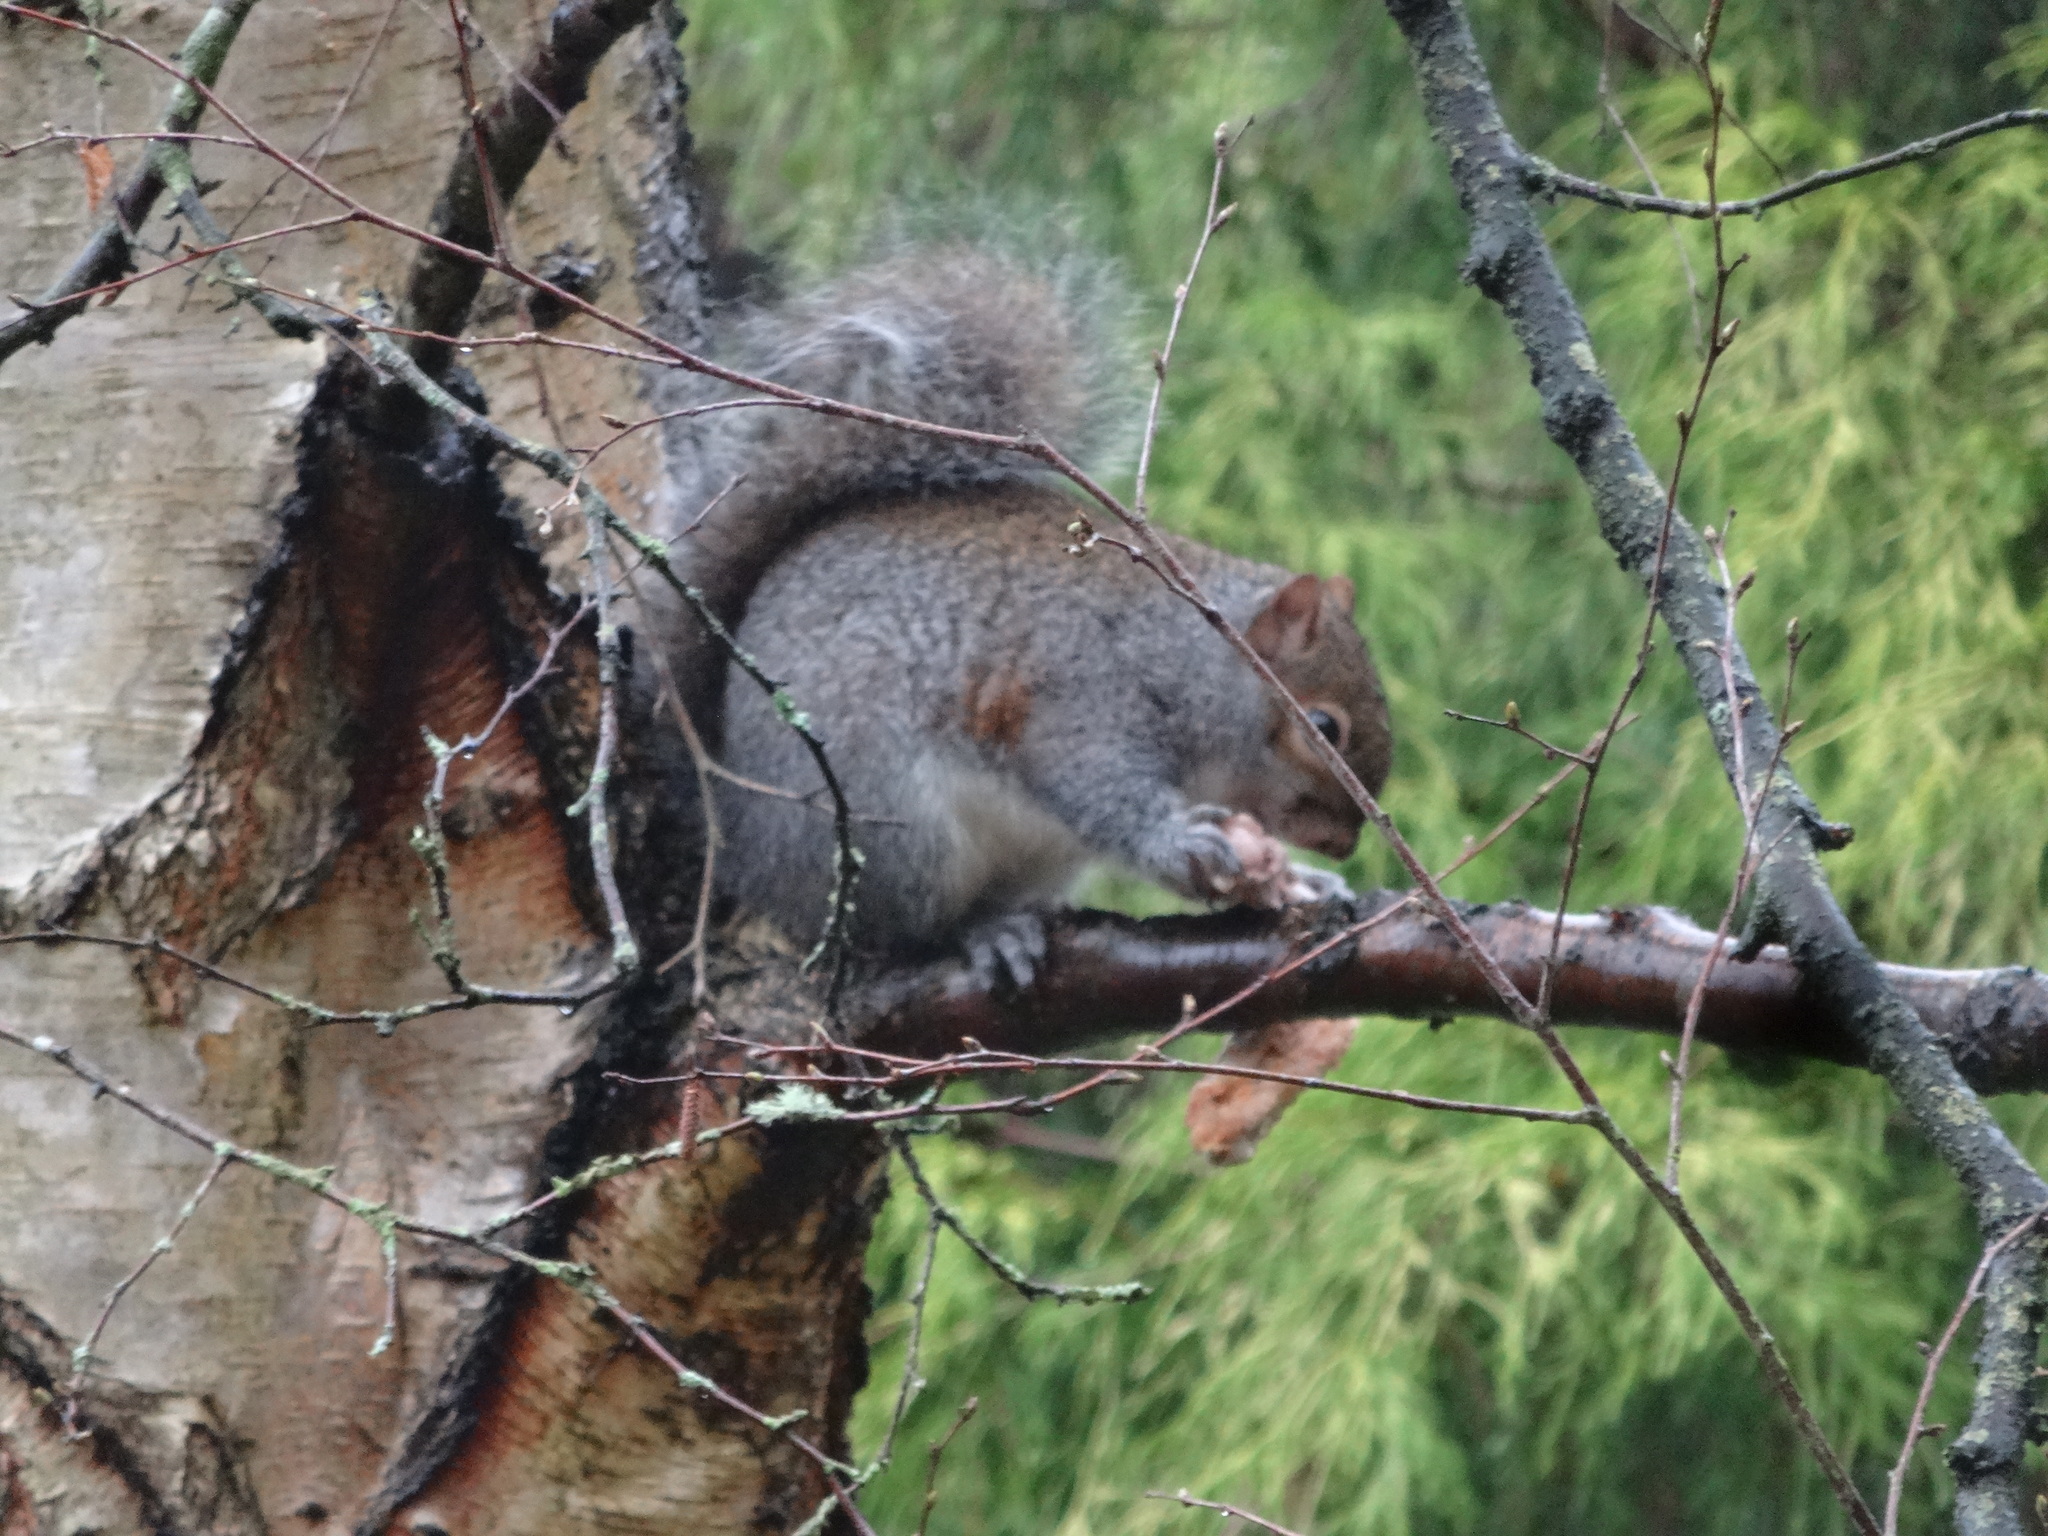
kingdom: Animalia
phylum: Chordata
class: Mammalia
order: Rodentia
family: Sciuridae
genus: Sciurus
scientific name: Sciurus carolinensis
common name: Eastern gray squirrel
